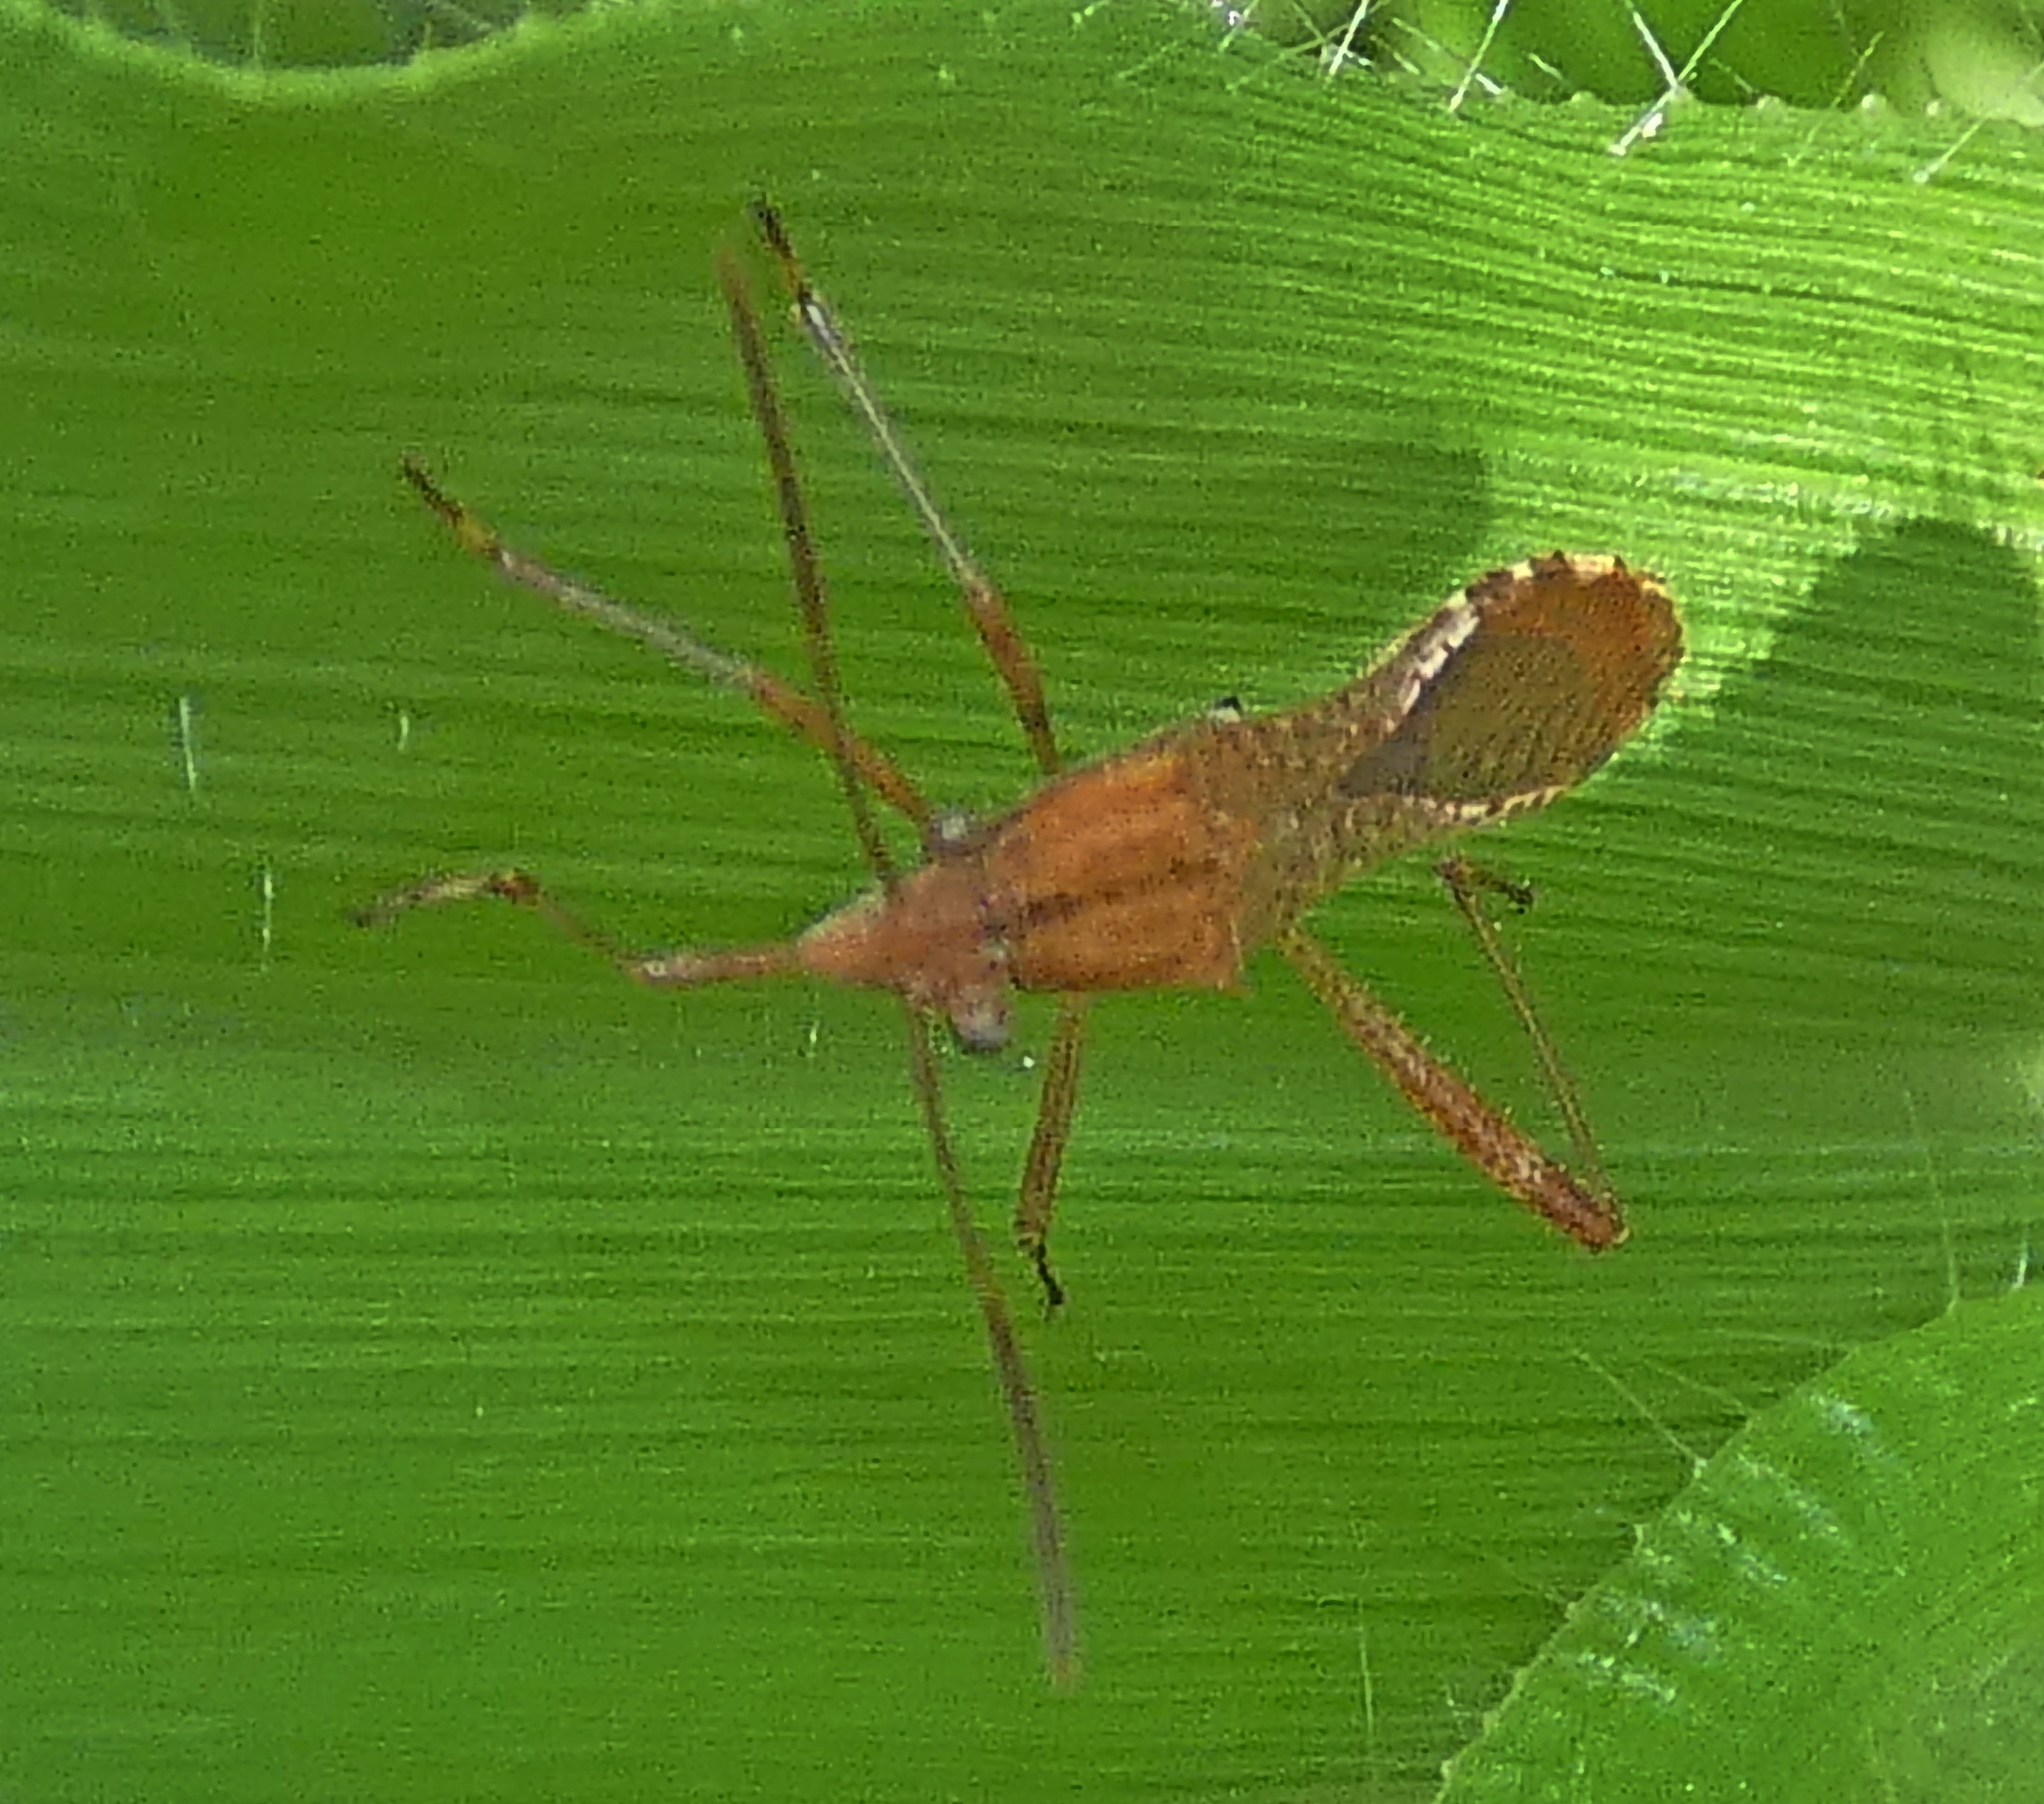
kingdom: Animalia
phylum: Arthropoda
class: Insecta
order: Hemiptera
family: Alydidae
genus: Neomegalotomus
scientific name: Neomegalotomus parvus
